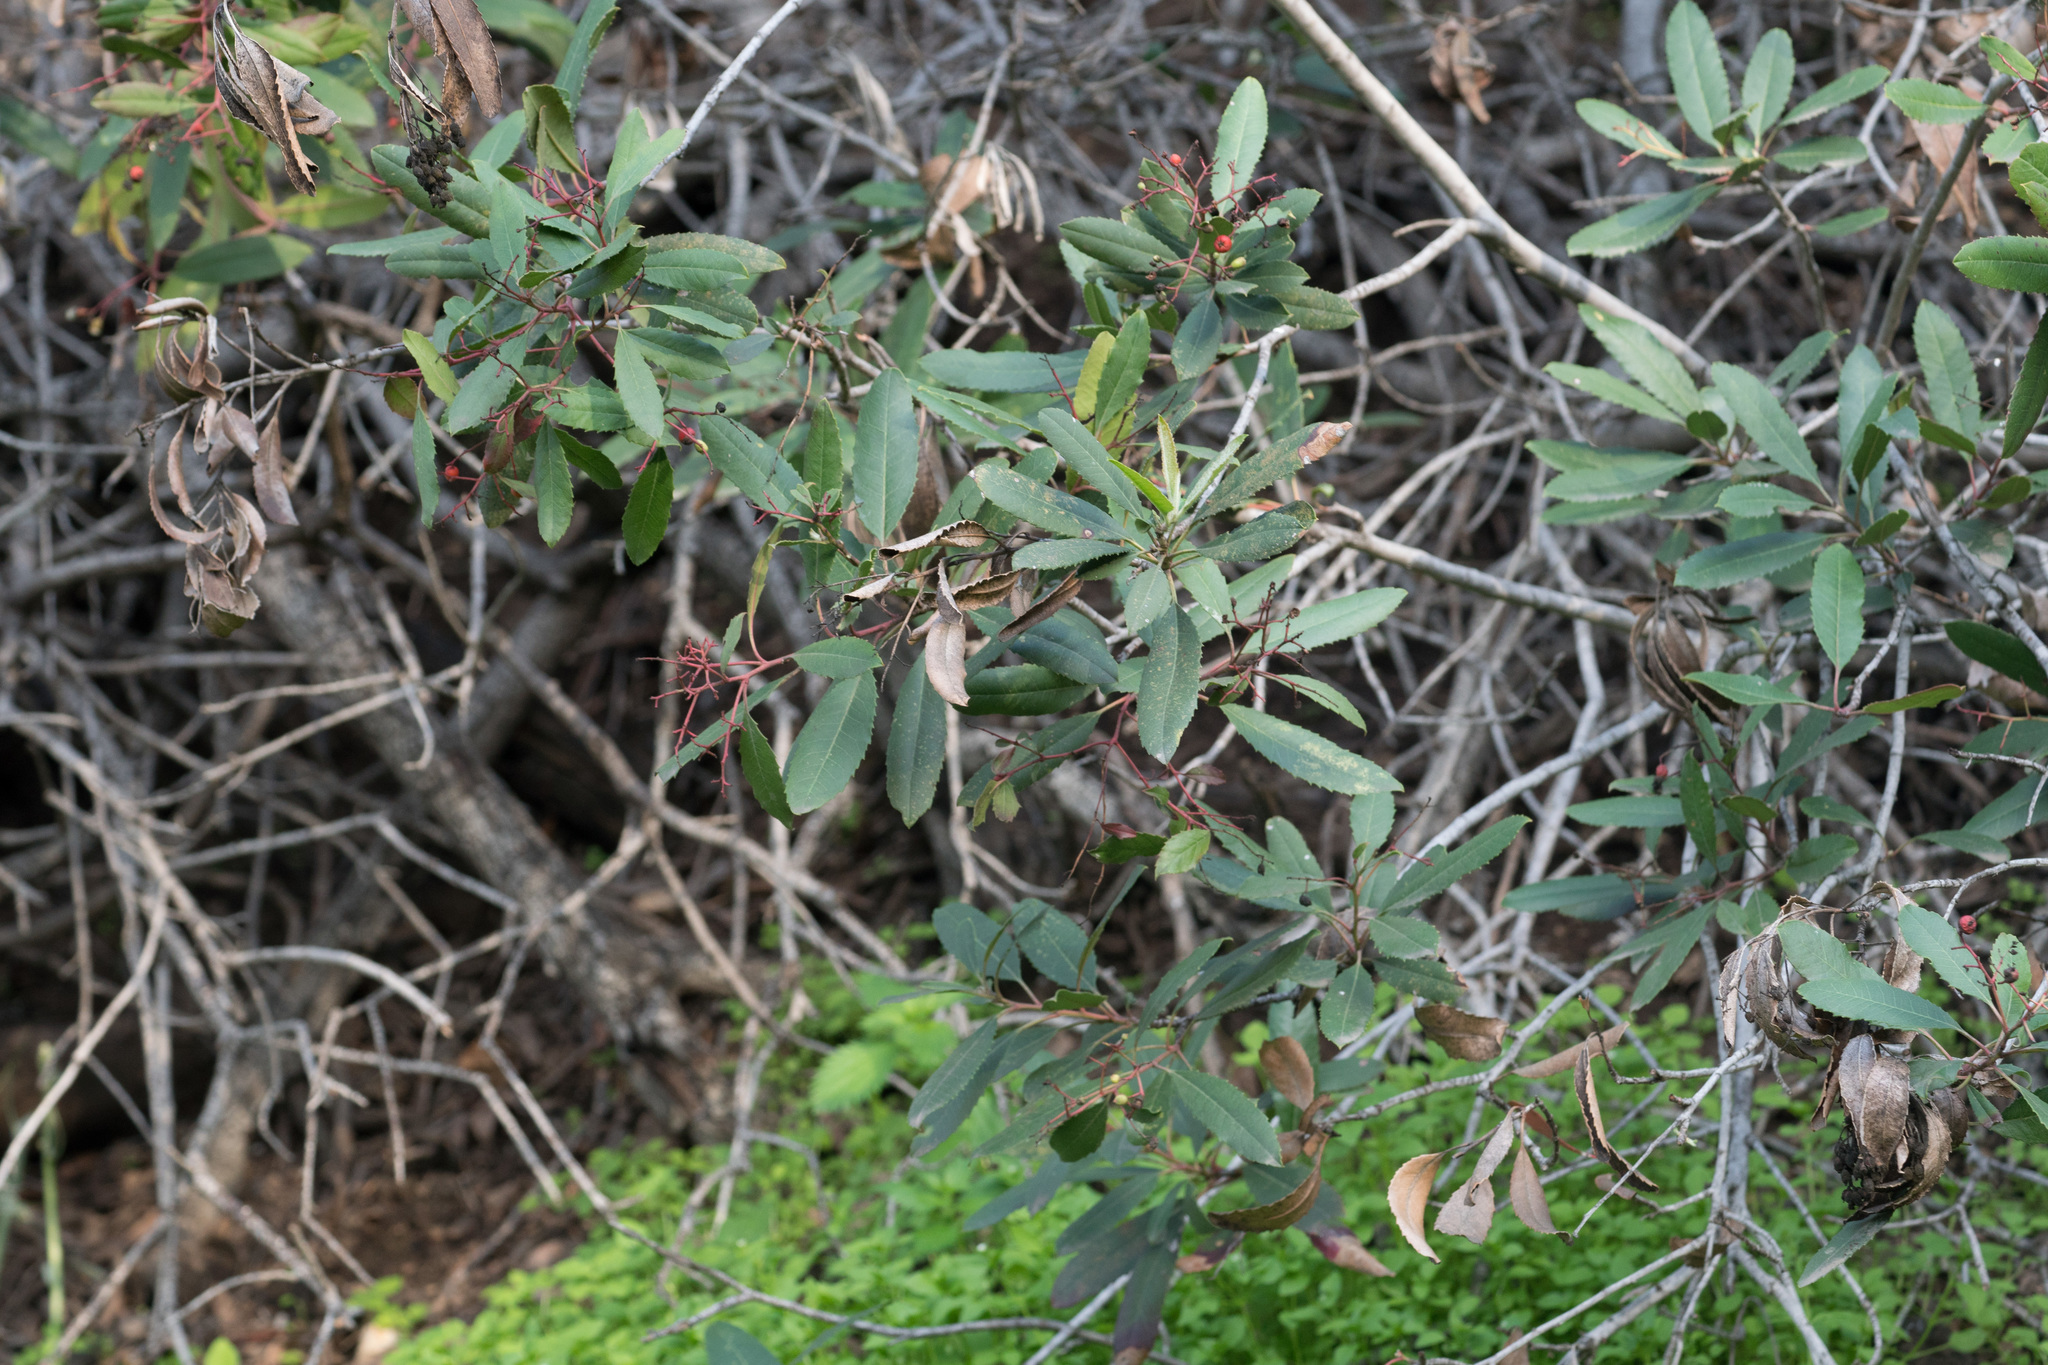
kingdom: Plantae
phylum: Tracheophyta
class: Magnoliopsida
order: Rosales
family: Rosaceae
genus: Heteromeles
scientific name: Heteromeles arbutifolia
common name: California-holly
